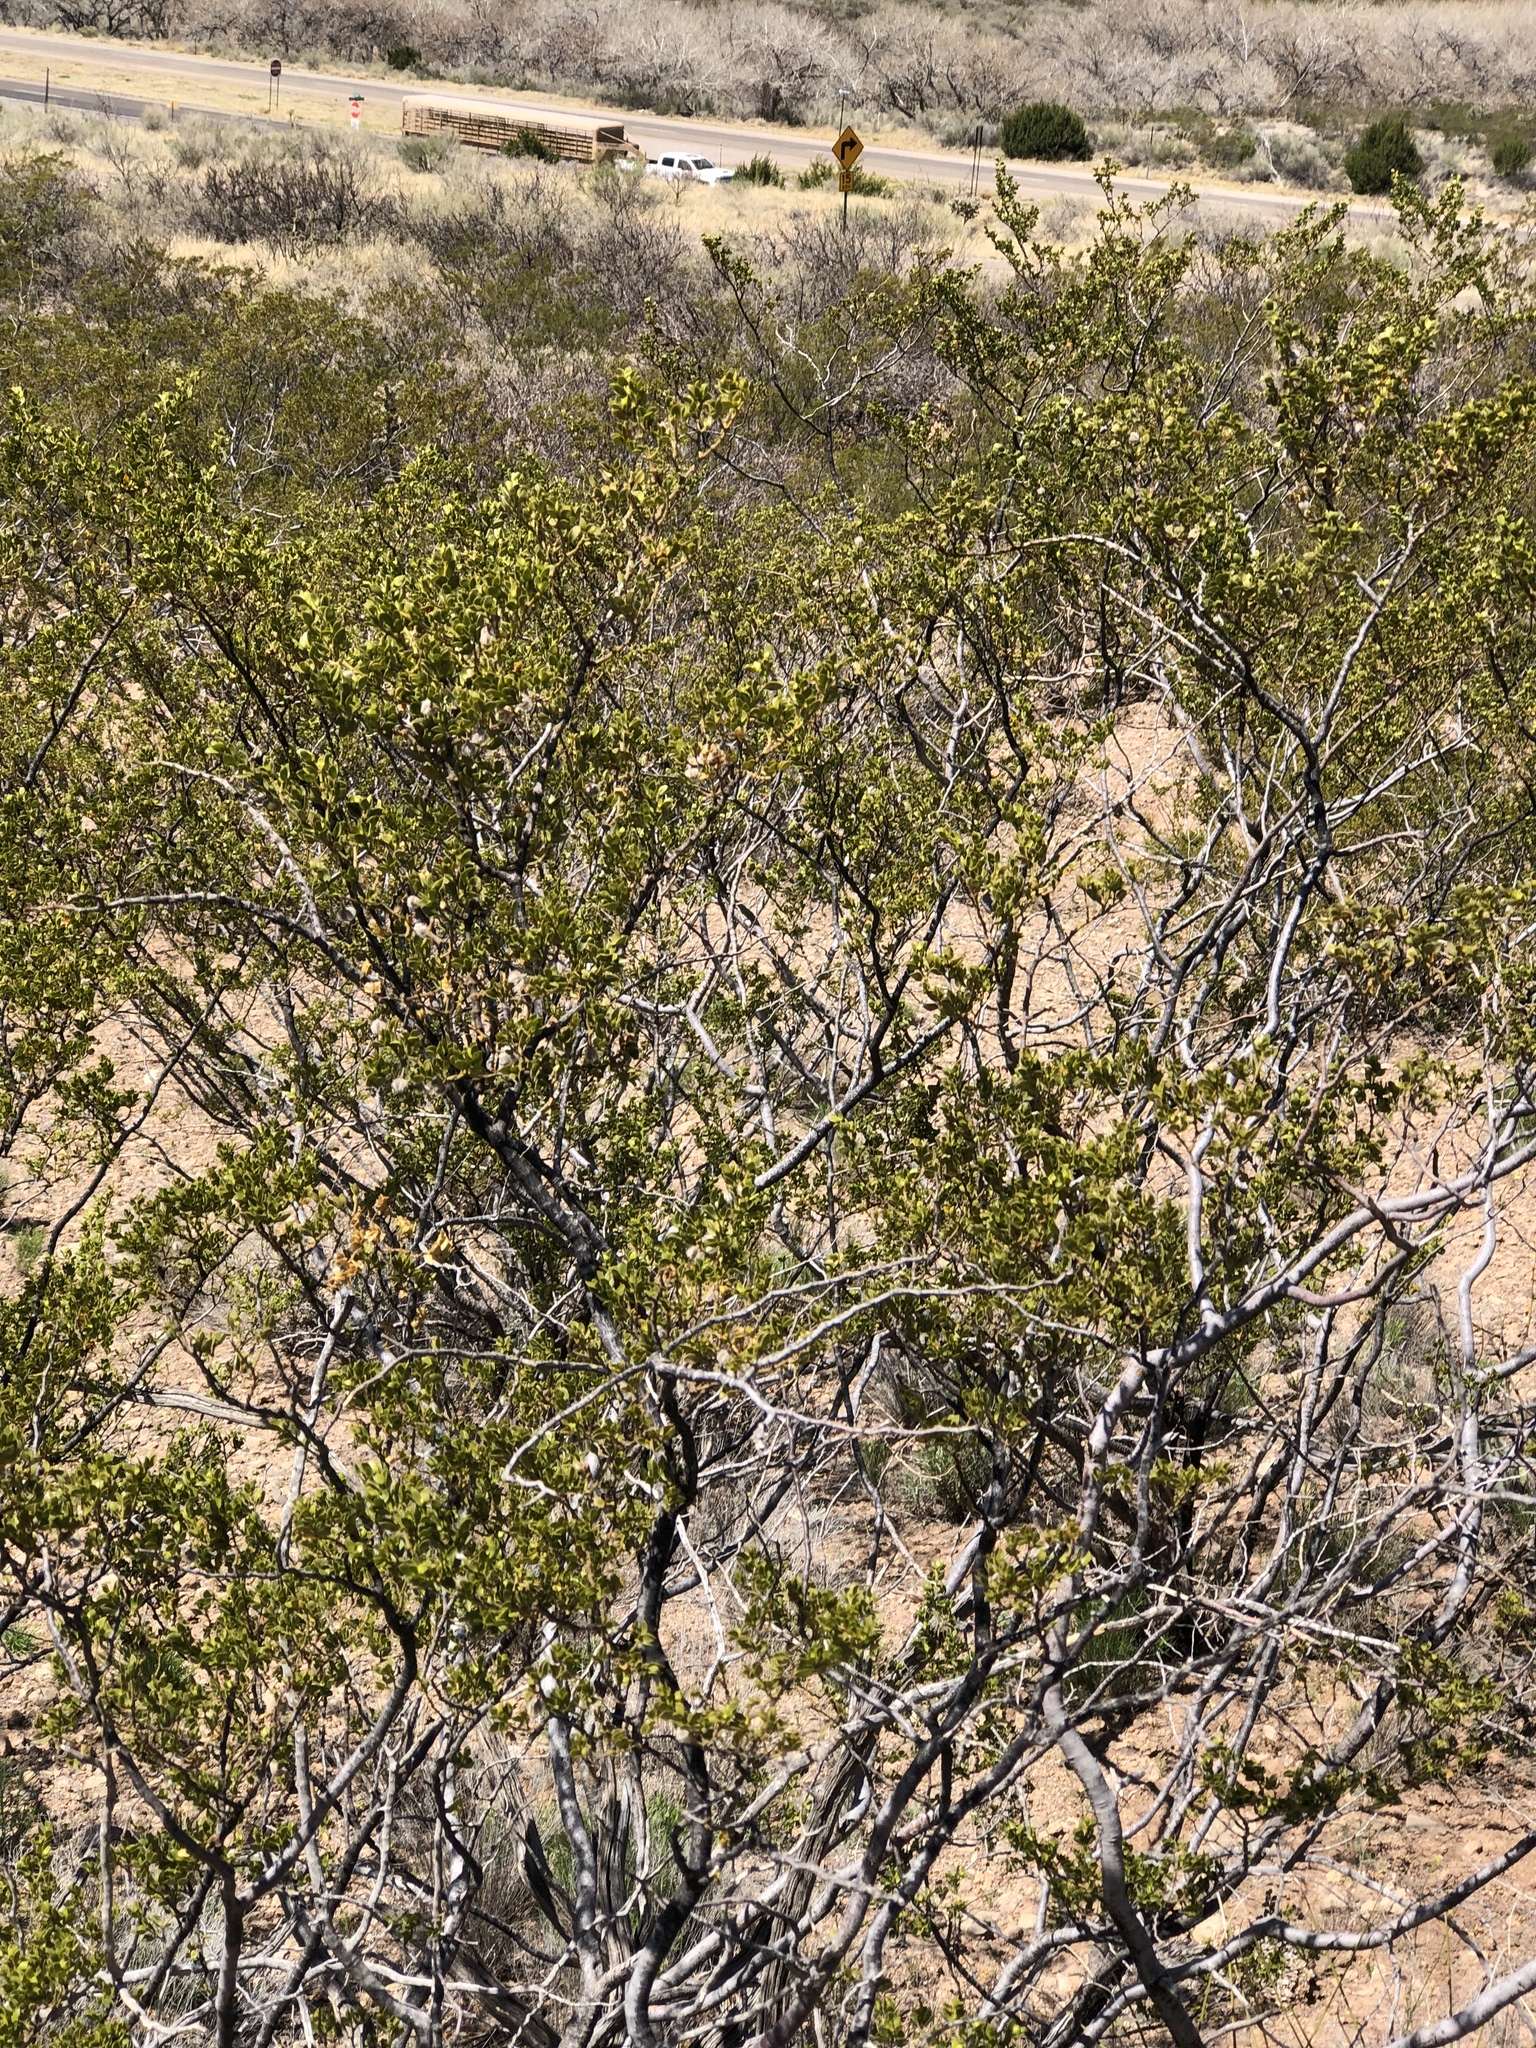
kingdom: Plantae
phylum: Tracheophyta
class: Magnoliopsida
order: Zygophyllales
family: Zygophyllaceae
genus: Larrea
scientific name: Larrea tridentata
